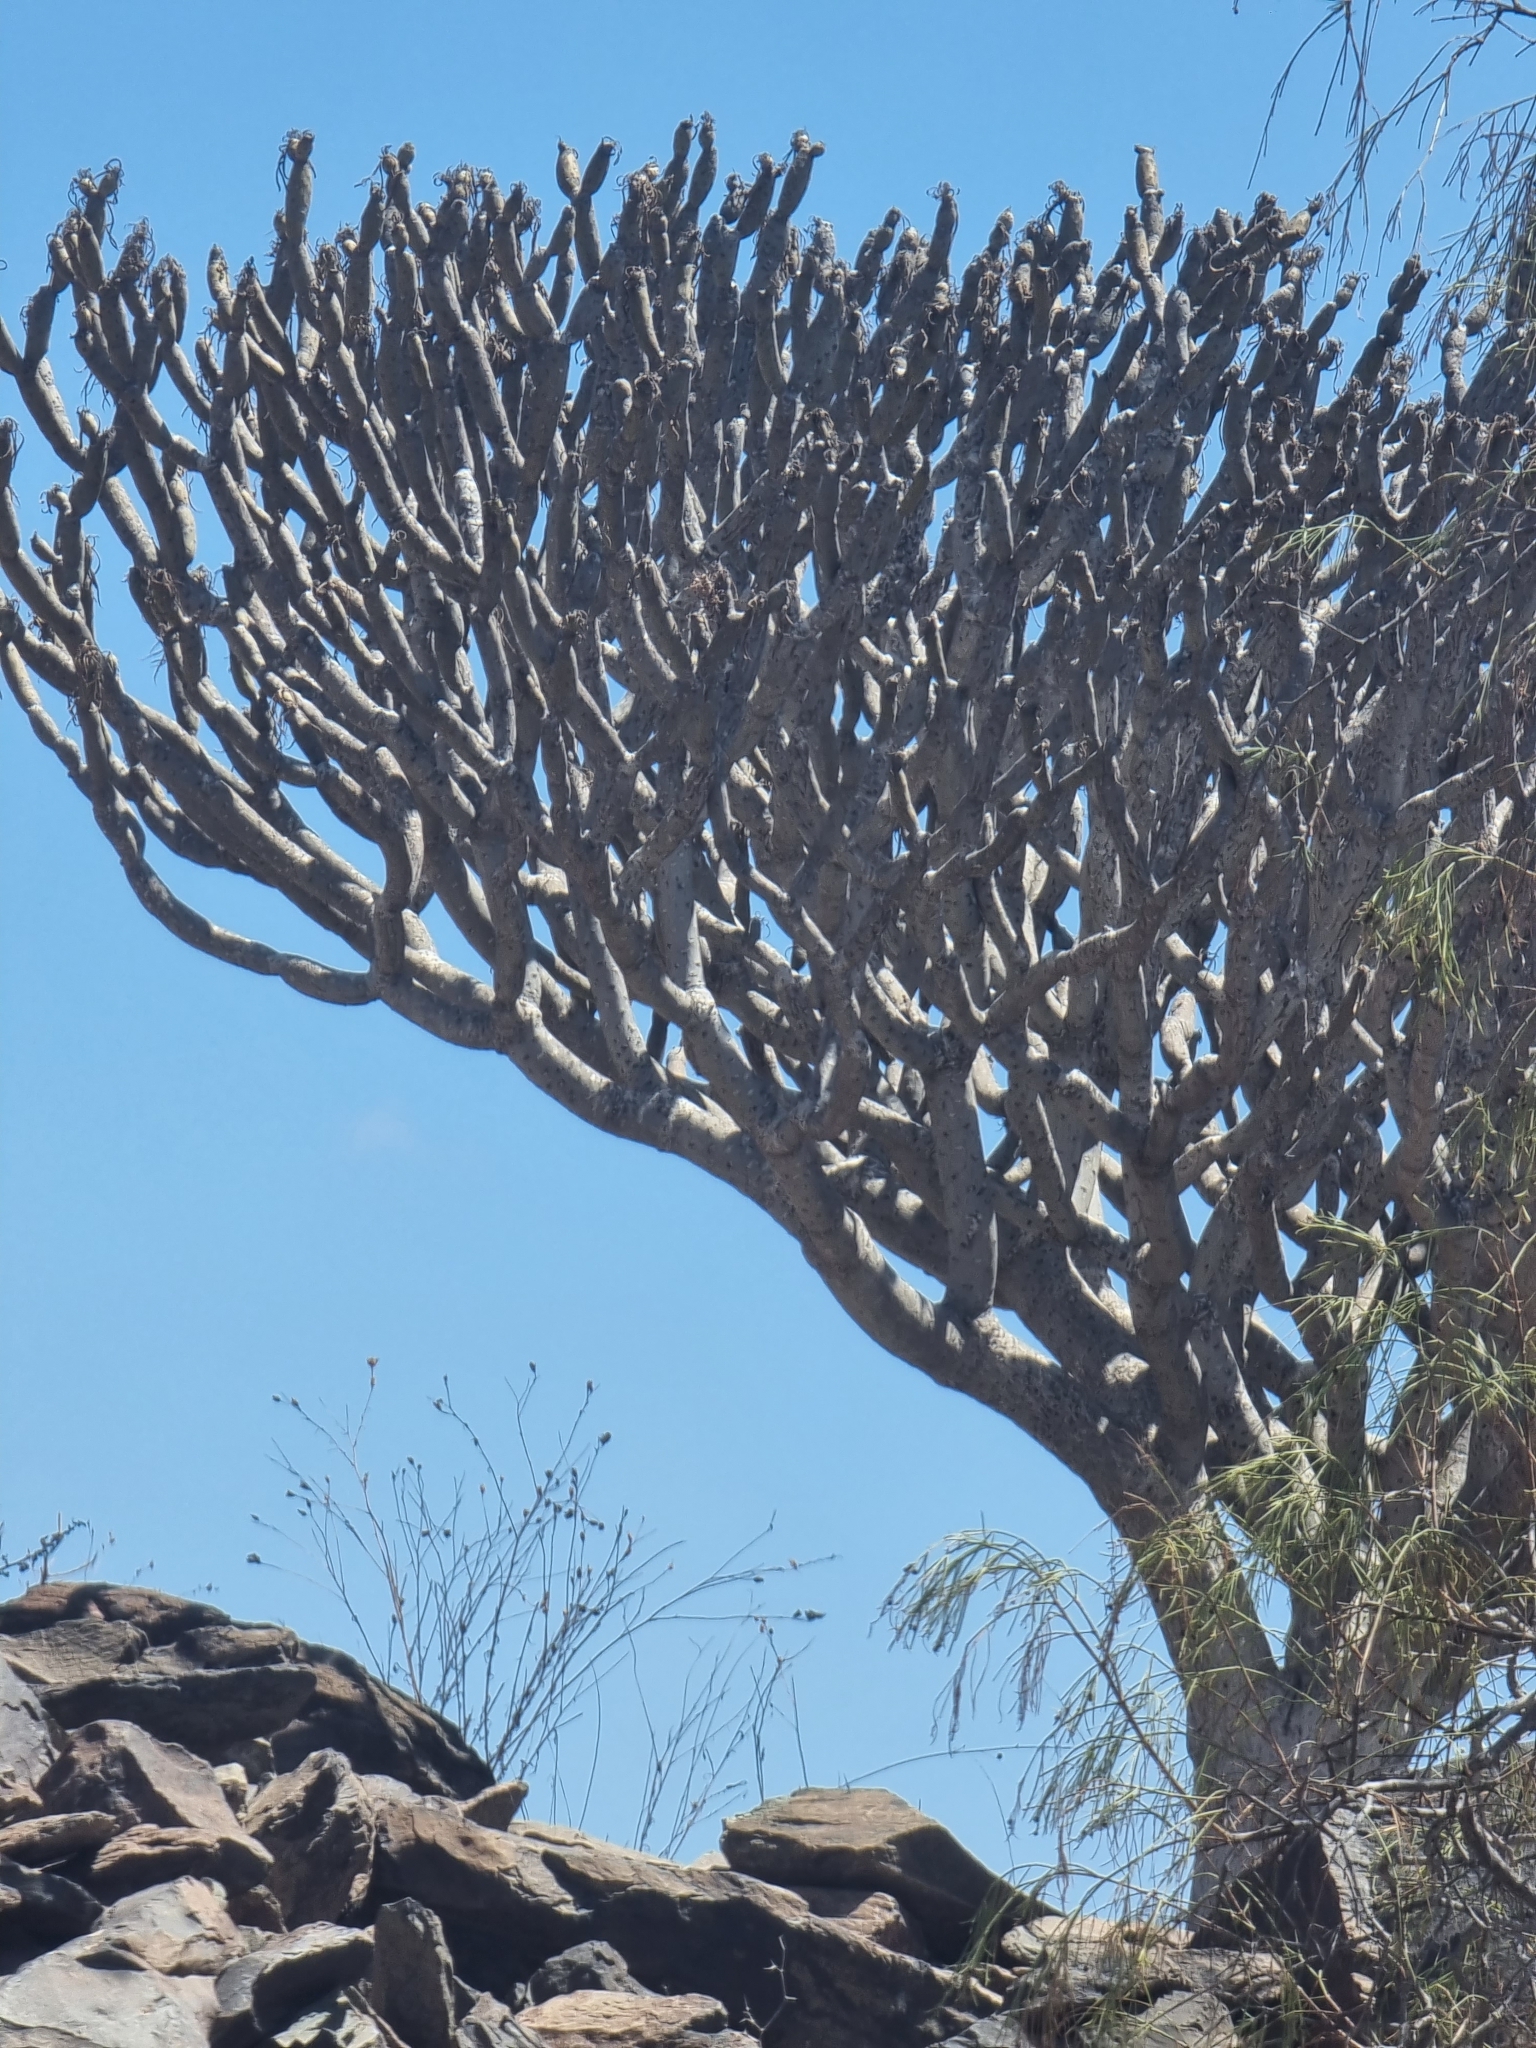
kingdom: Plantae
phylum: Tracheophyta
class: Magnoliopsida
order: Asterales
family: Asteraceae
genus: Kleinia
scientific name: Kleinia neriifolia
